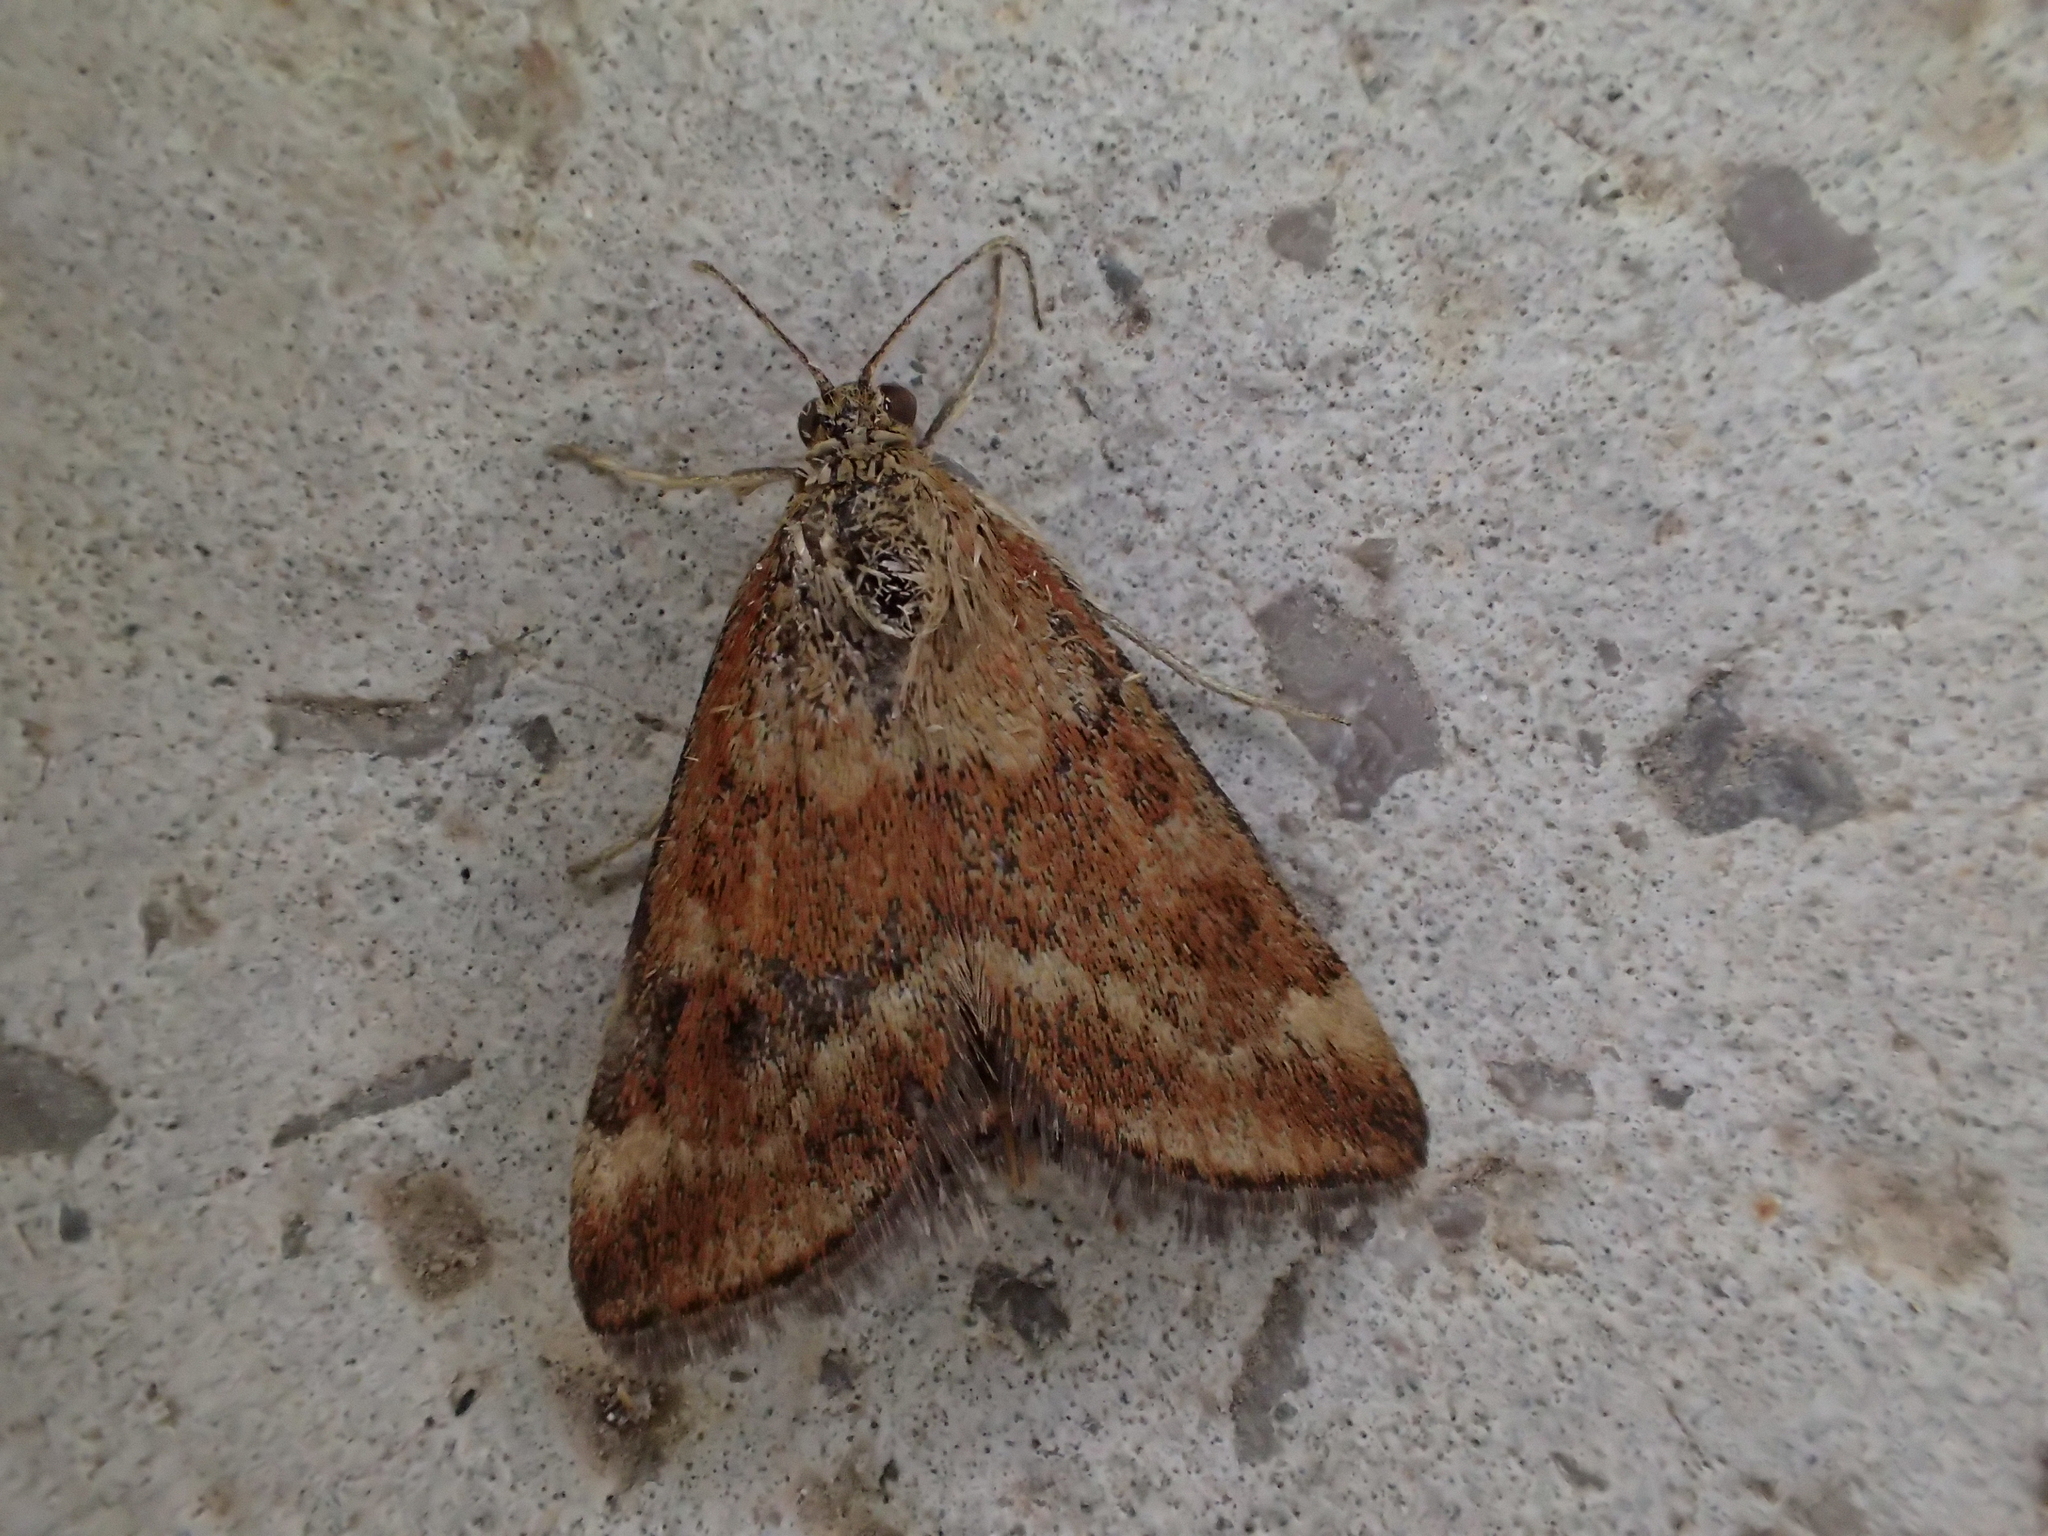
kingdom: Animalia
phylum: Arthropoda
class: Insecta
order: Lepidoptera
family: Crambidae
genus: Pyrausta
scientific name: Pyrausta despicata
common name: Straw-barred pearl
